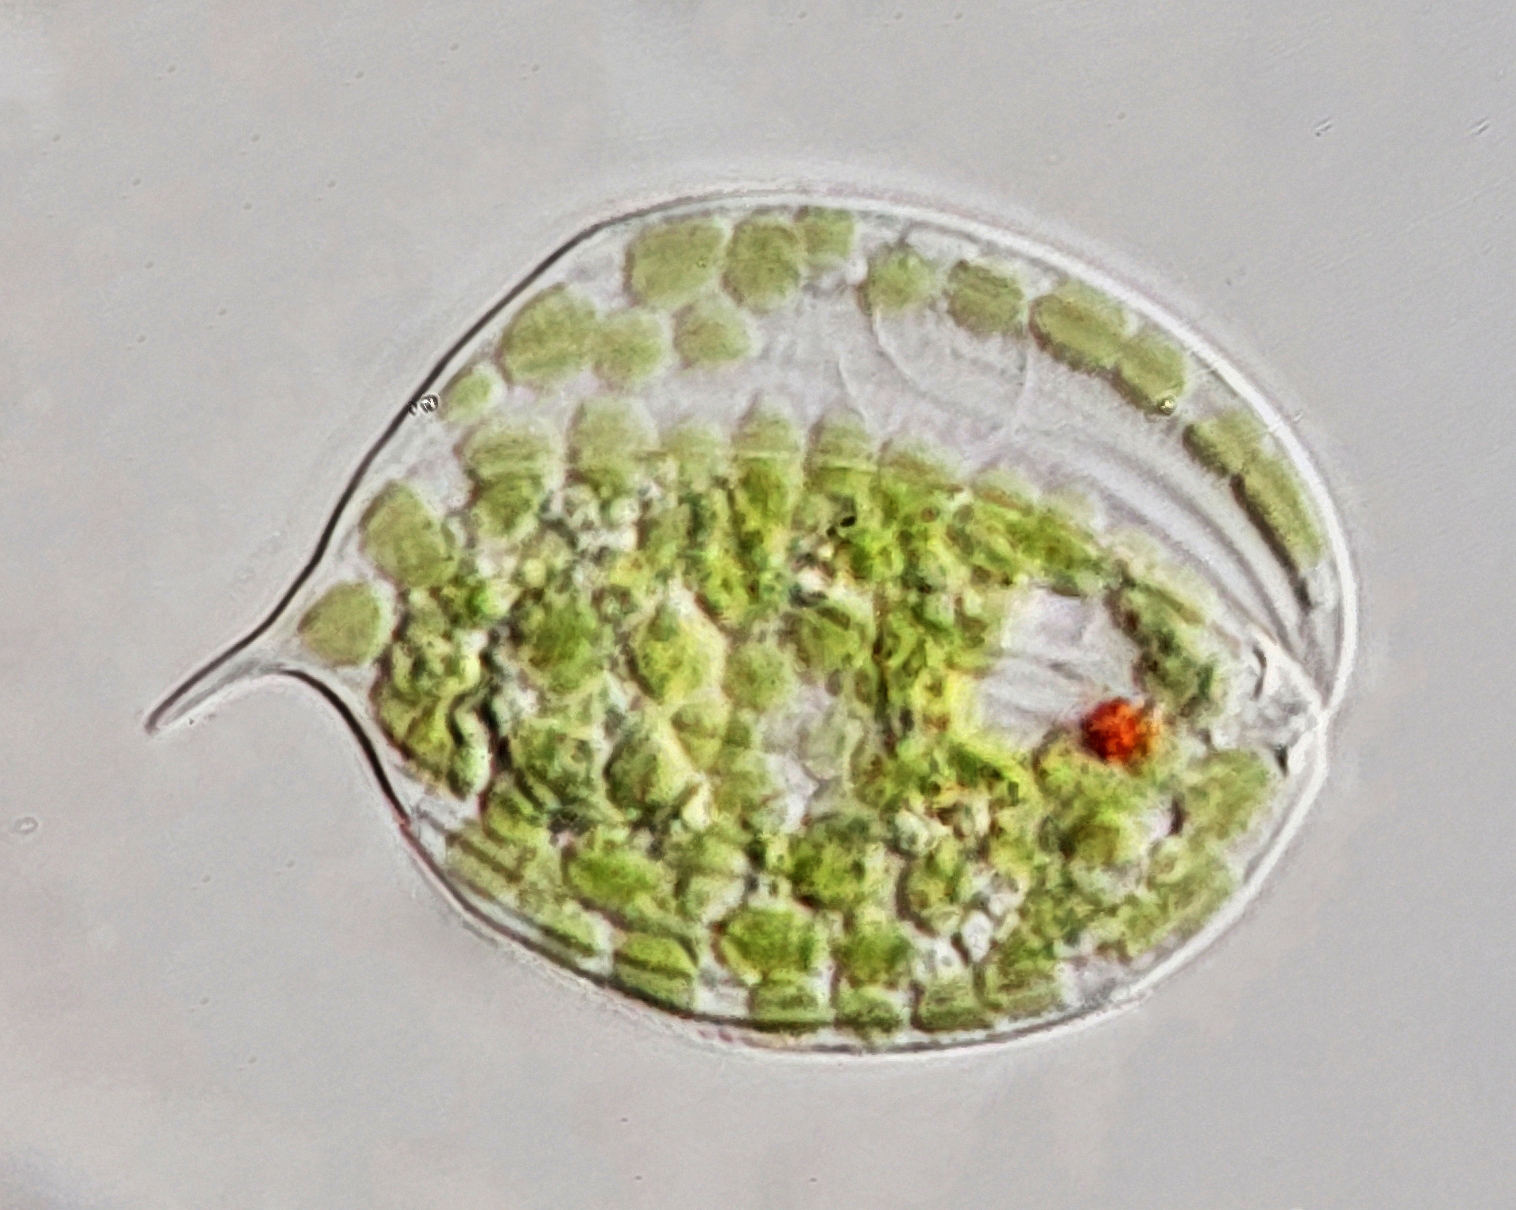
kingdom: Protozoa
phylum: Euglenozoa
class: Euglenoidea
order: Euglenida
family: Phacidae
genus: Phacus
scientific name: Phacus orbicularis
